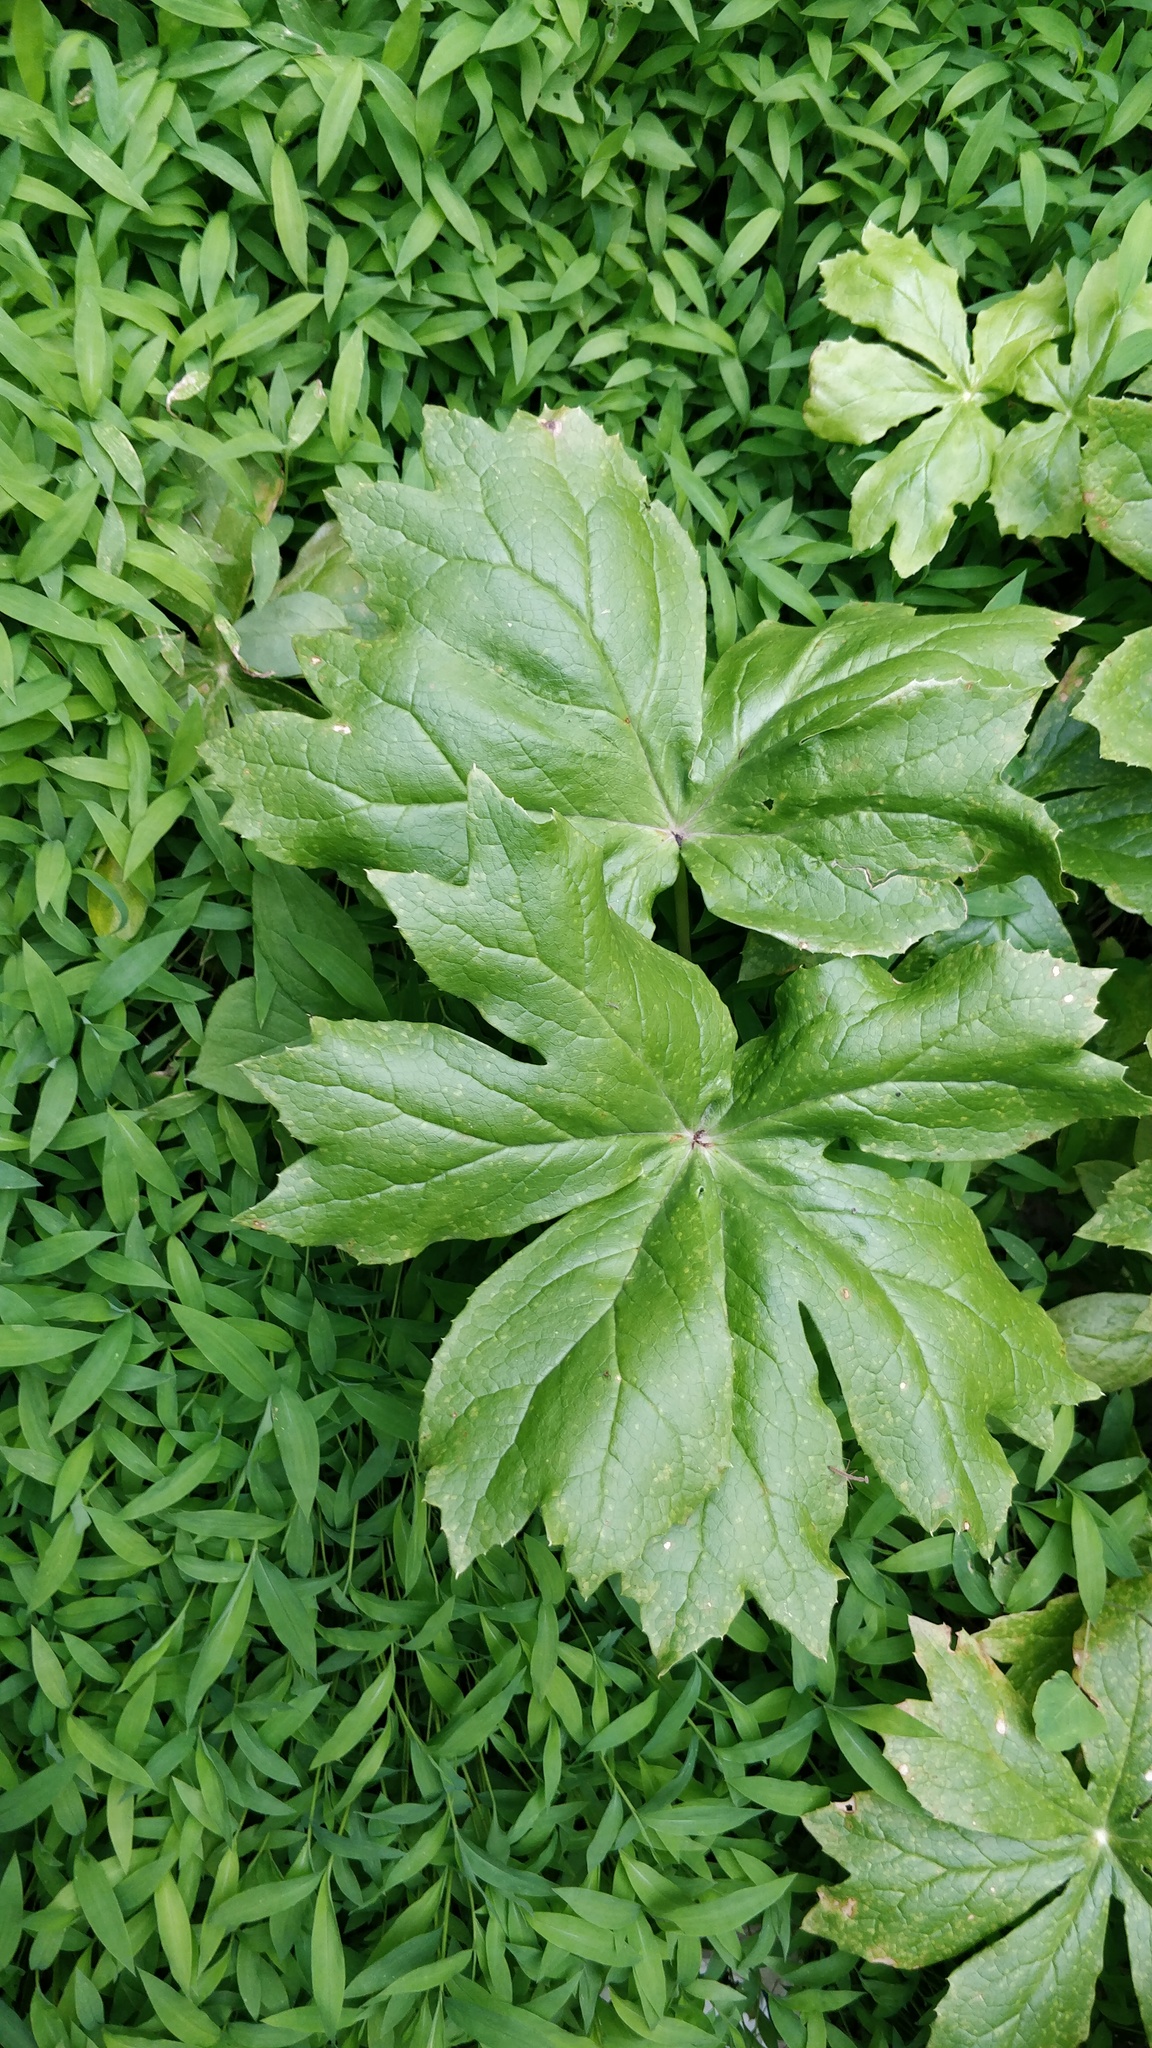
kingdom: Plantae
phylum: Tracheophyta
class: Magnoliopsida
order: Ranunculales
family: Berberidaceae
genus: Podophyllum
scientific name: Podophyllum peltatum
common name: Wild mandrake
